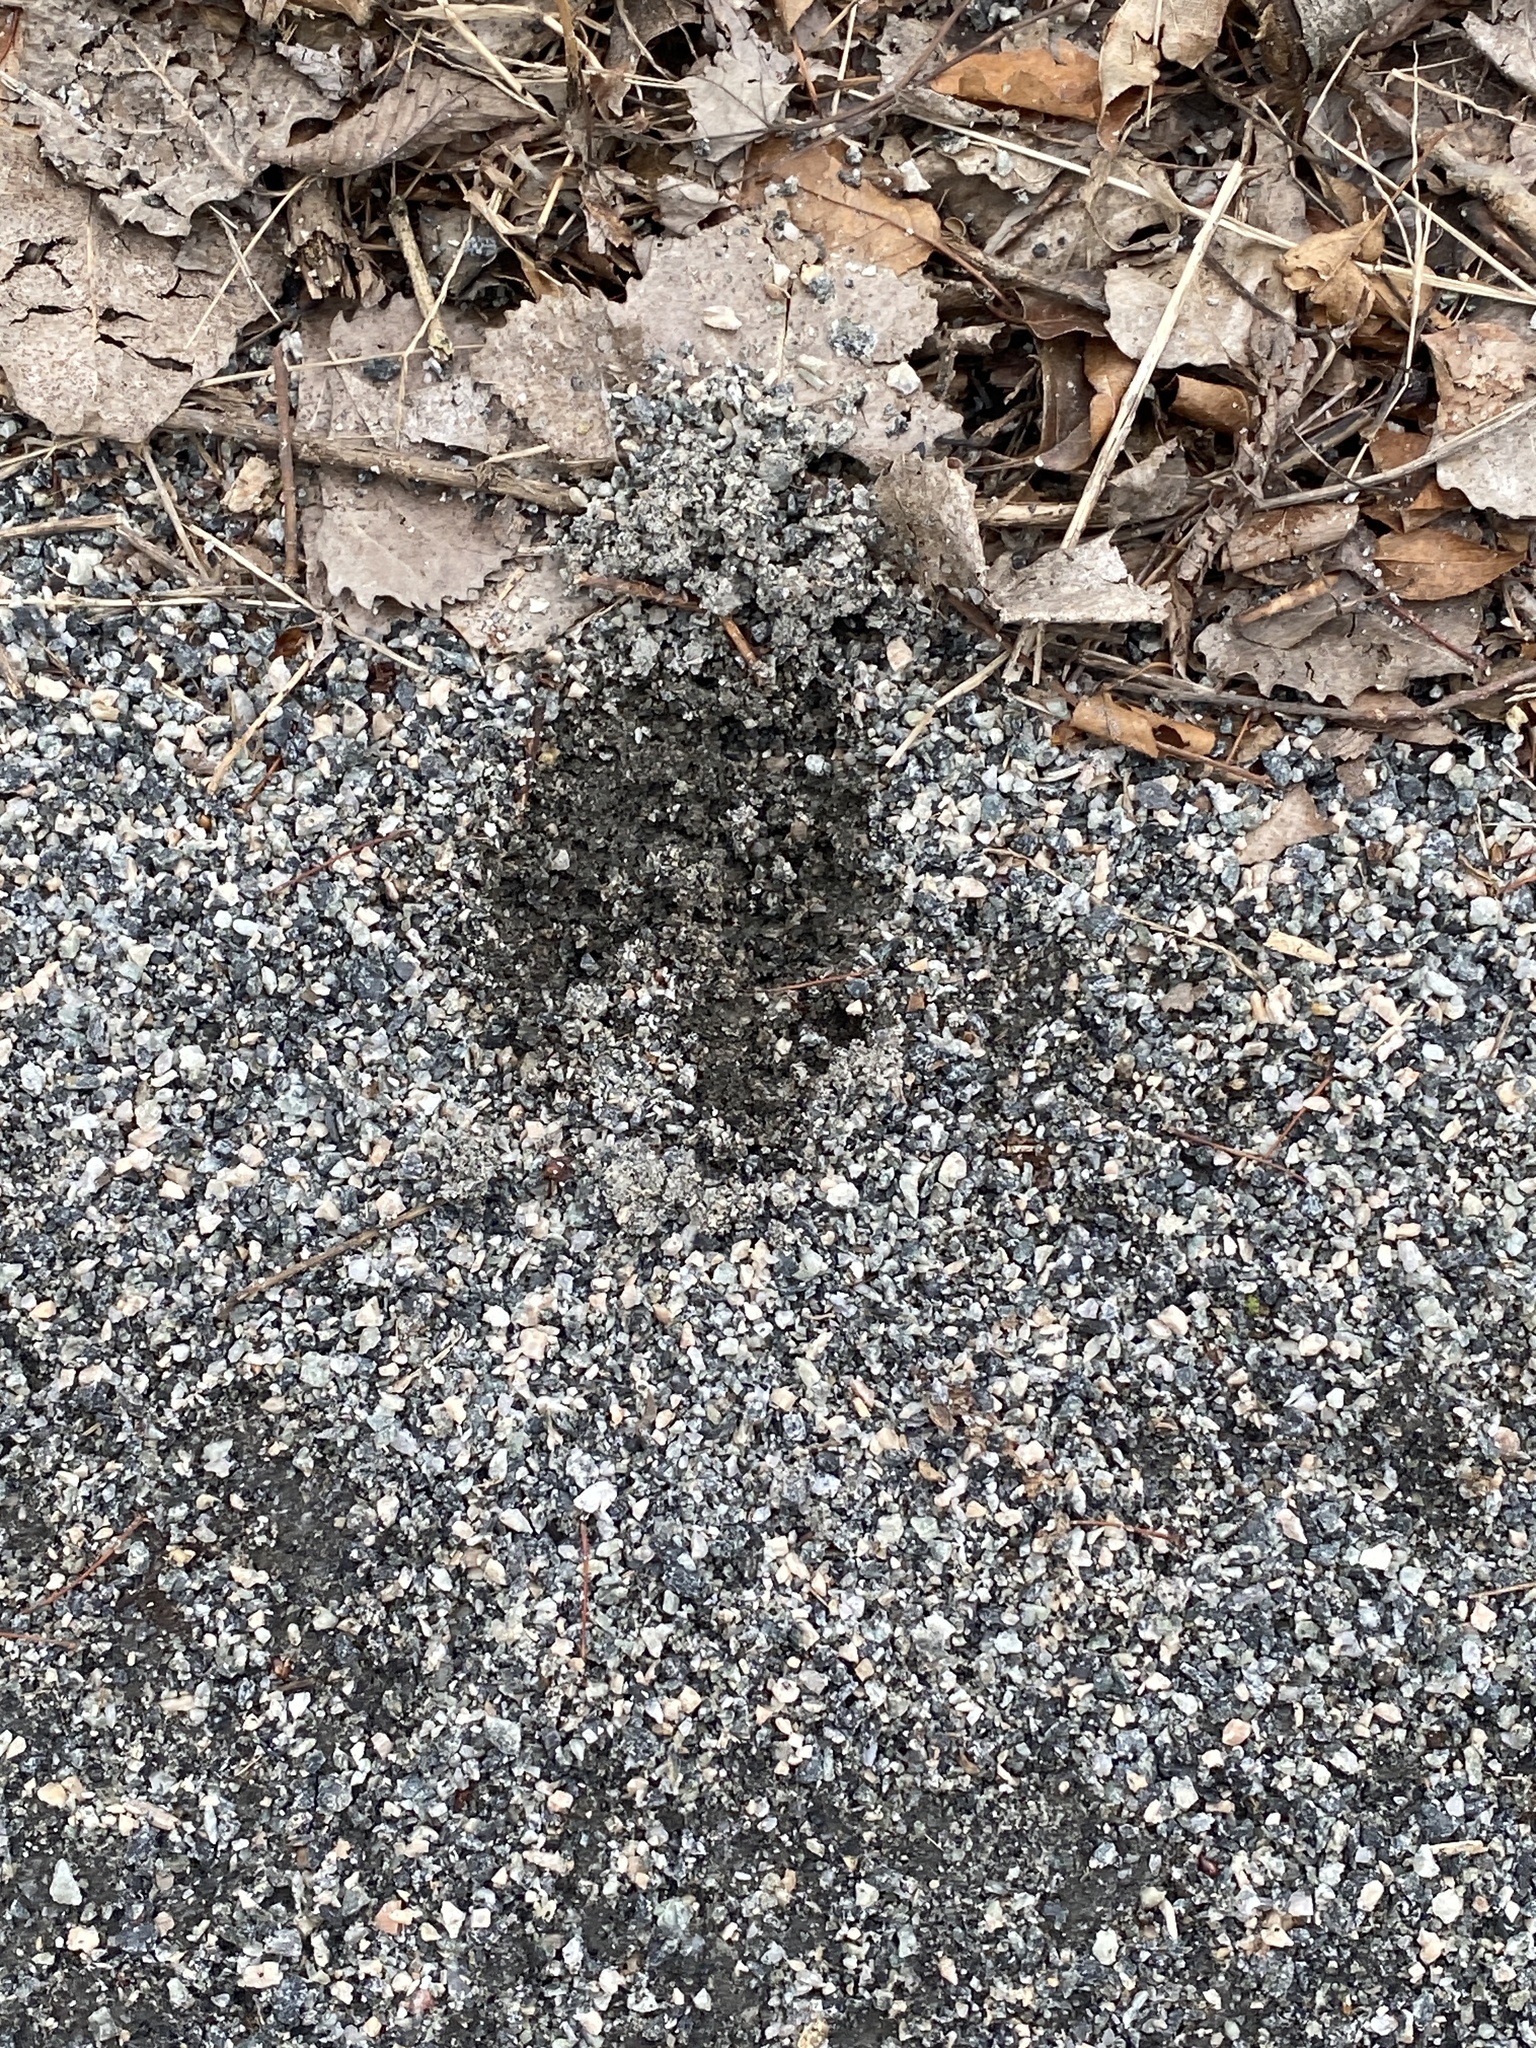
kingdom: Animalia
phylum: Chordata
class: Mammalia
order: Artiodactyla
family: Cervidae
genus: Odocoileus
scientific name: Odocoileus virginianus
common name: White-tailed deer
